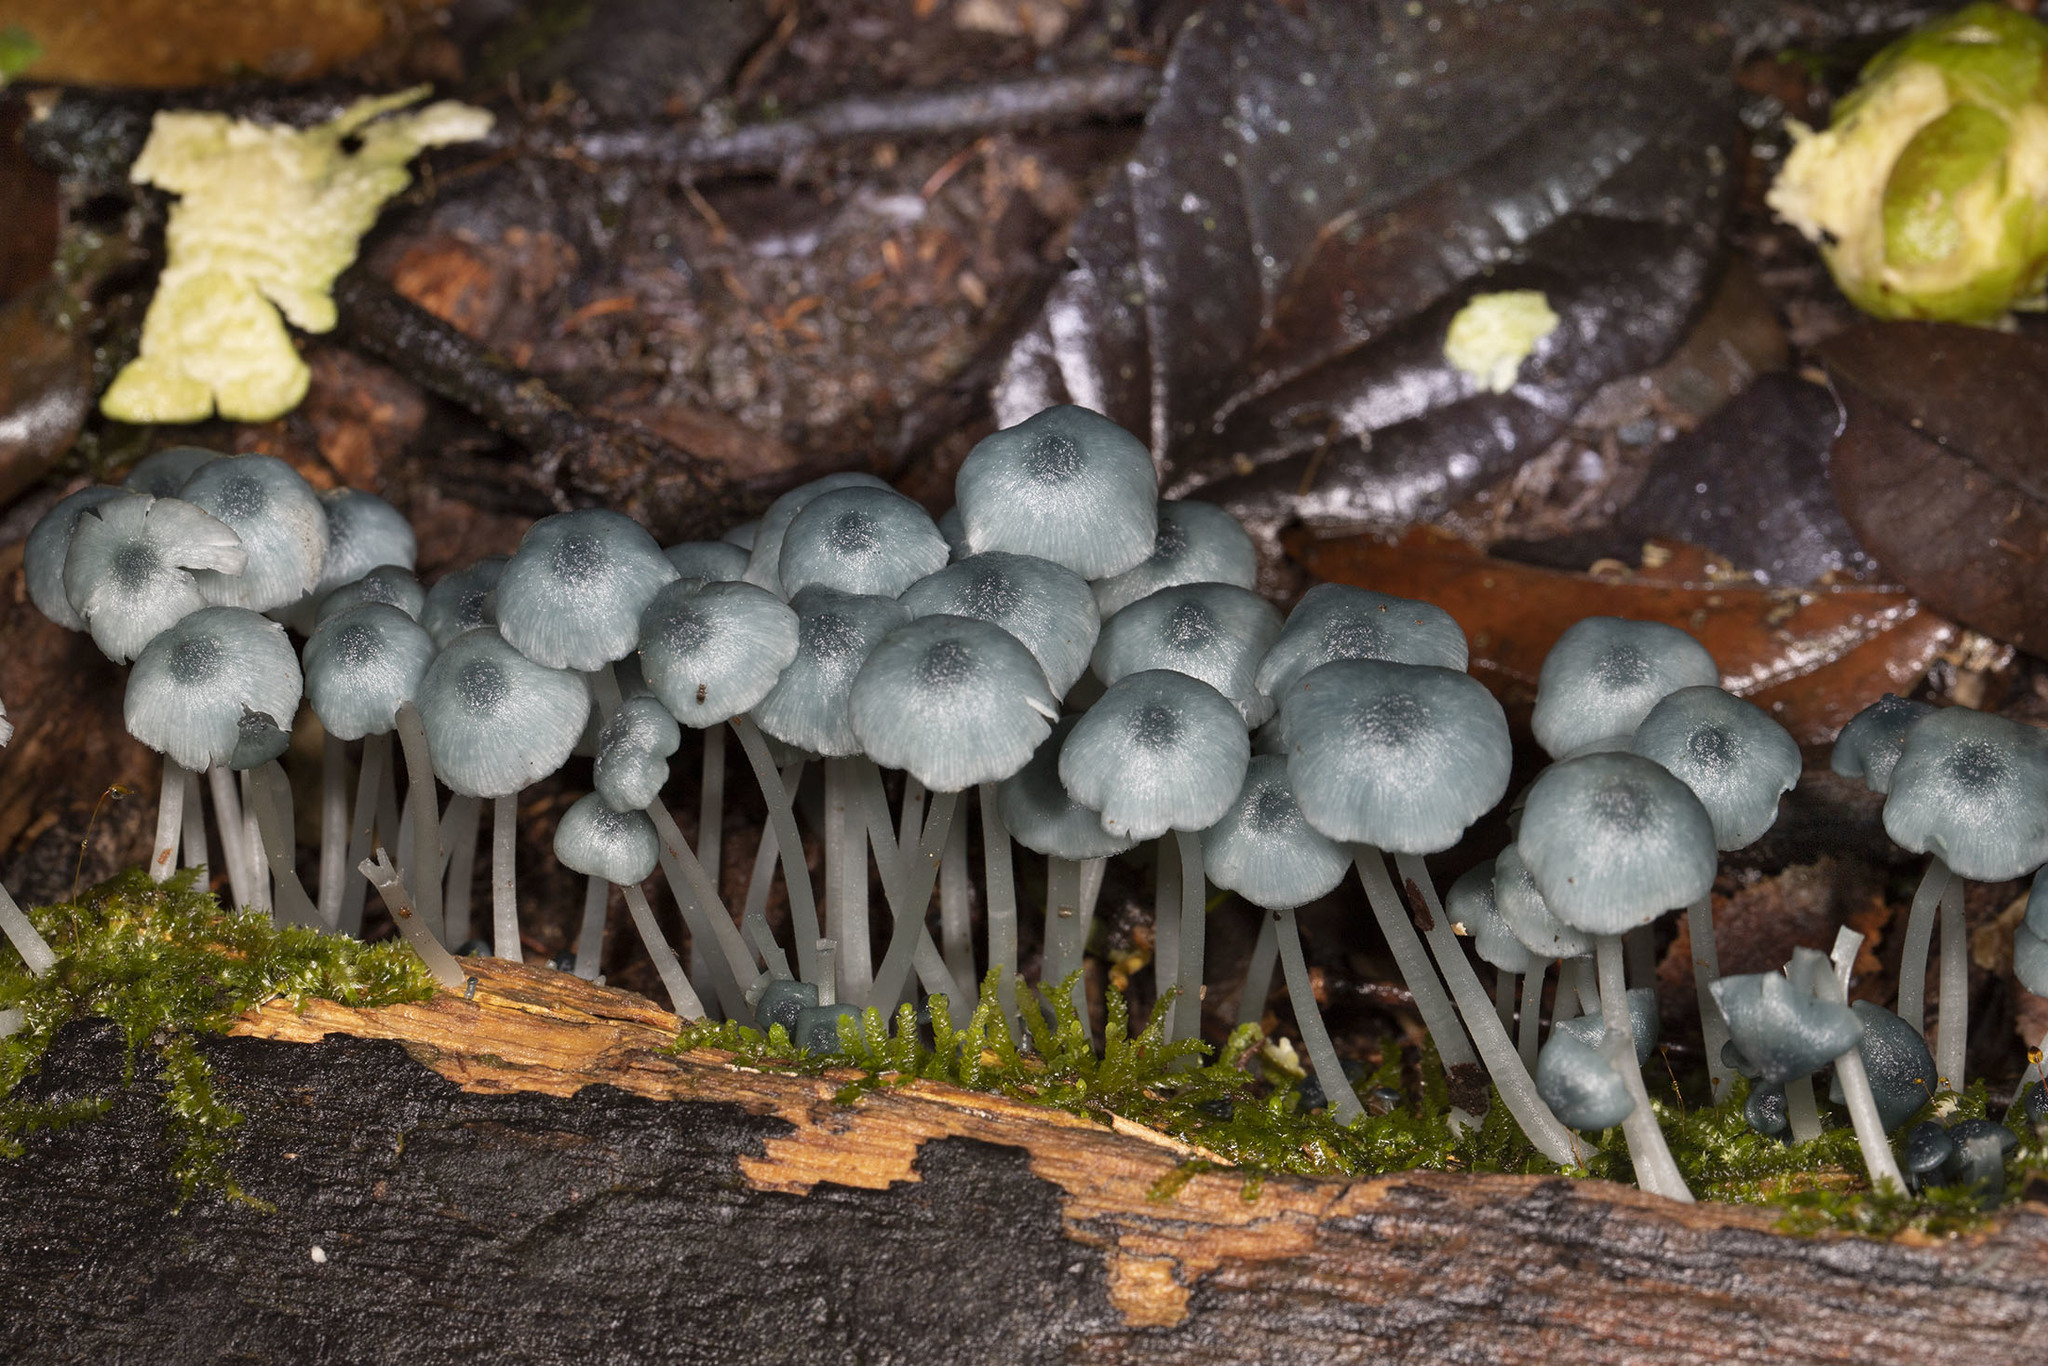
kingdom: Fungi
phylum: Basidiomycota
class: Agaricomycetes
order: Agaricales
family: Marasmiaceae
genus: Clitocybula
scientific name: Clitocybula azurea
